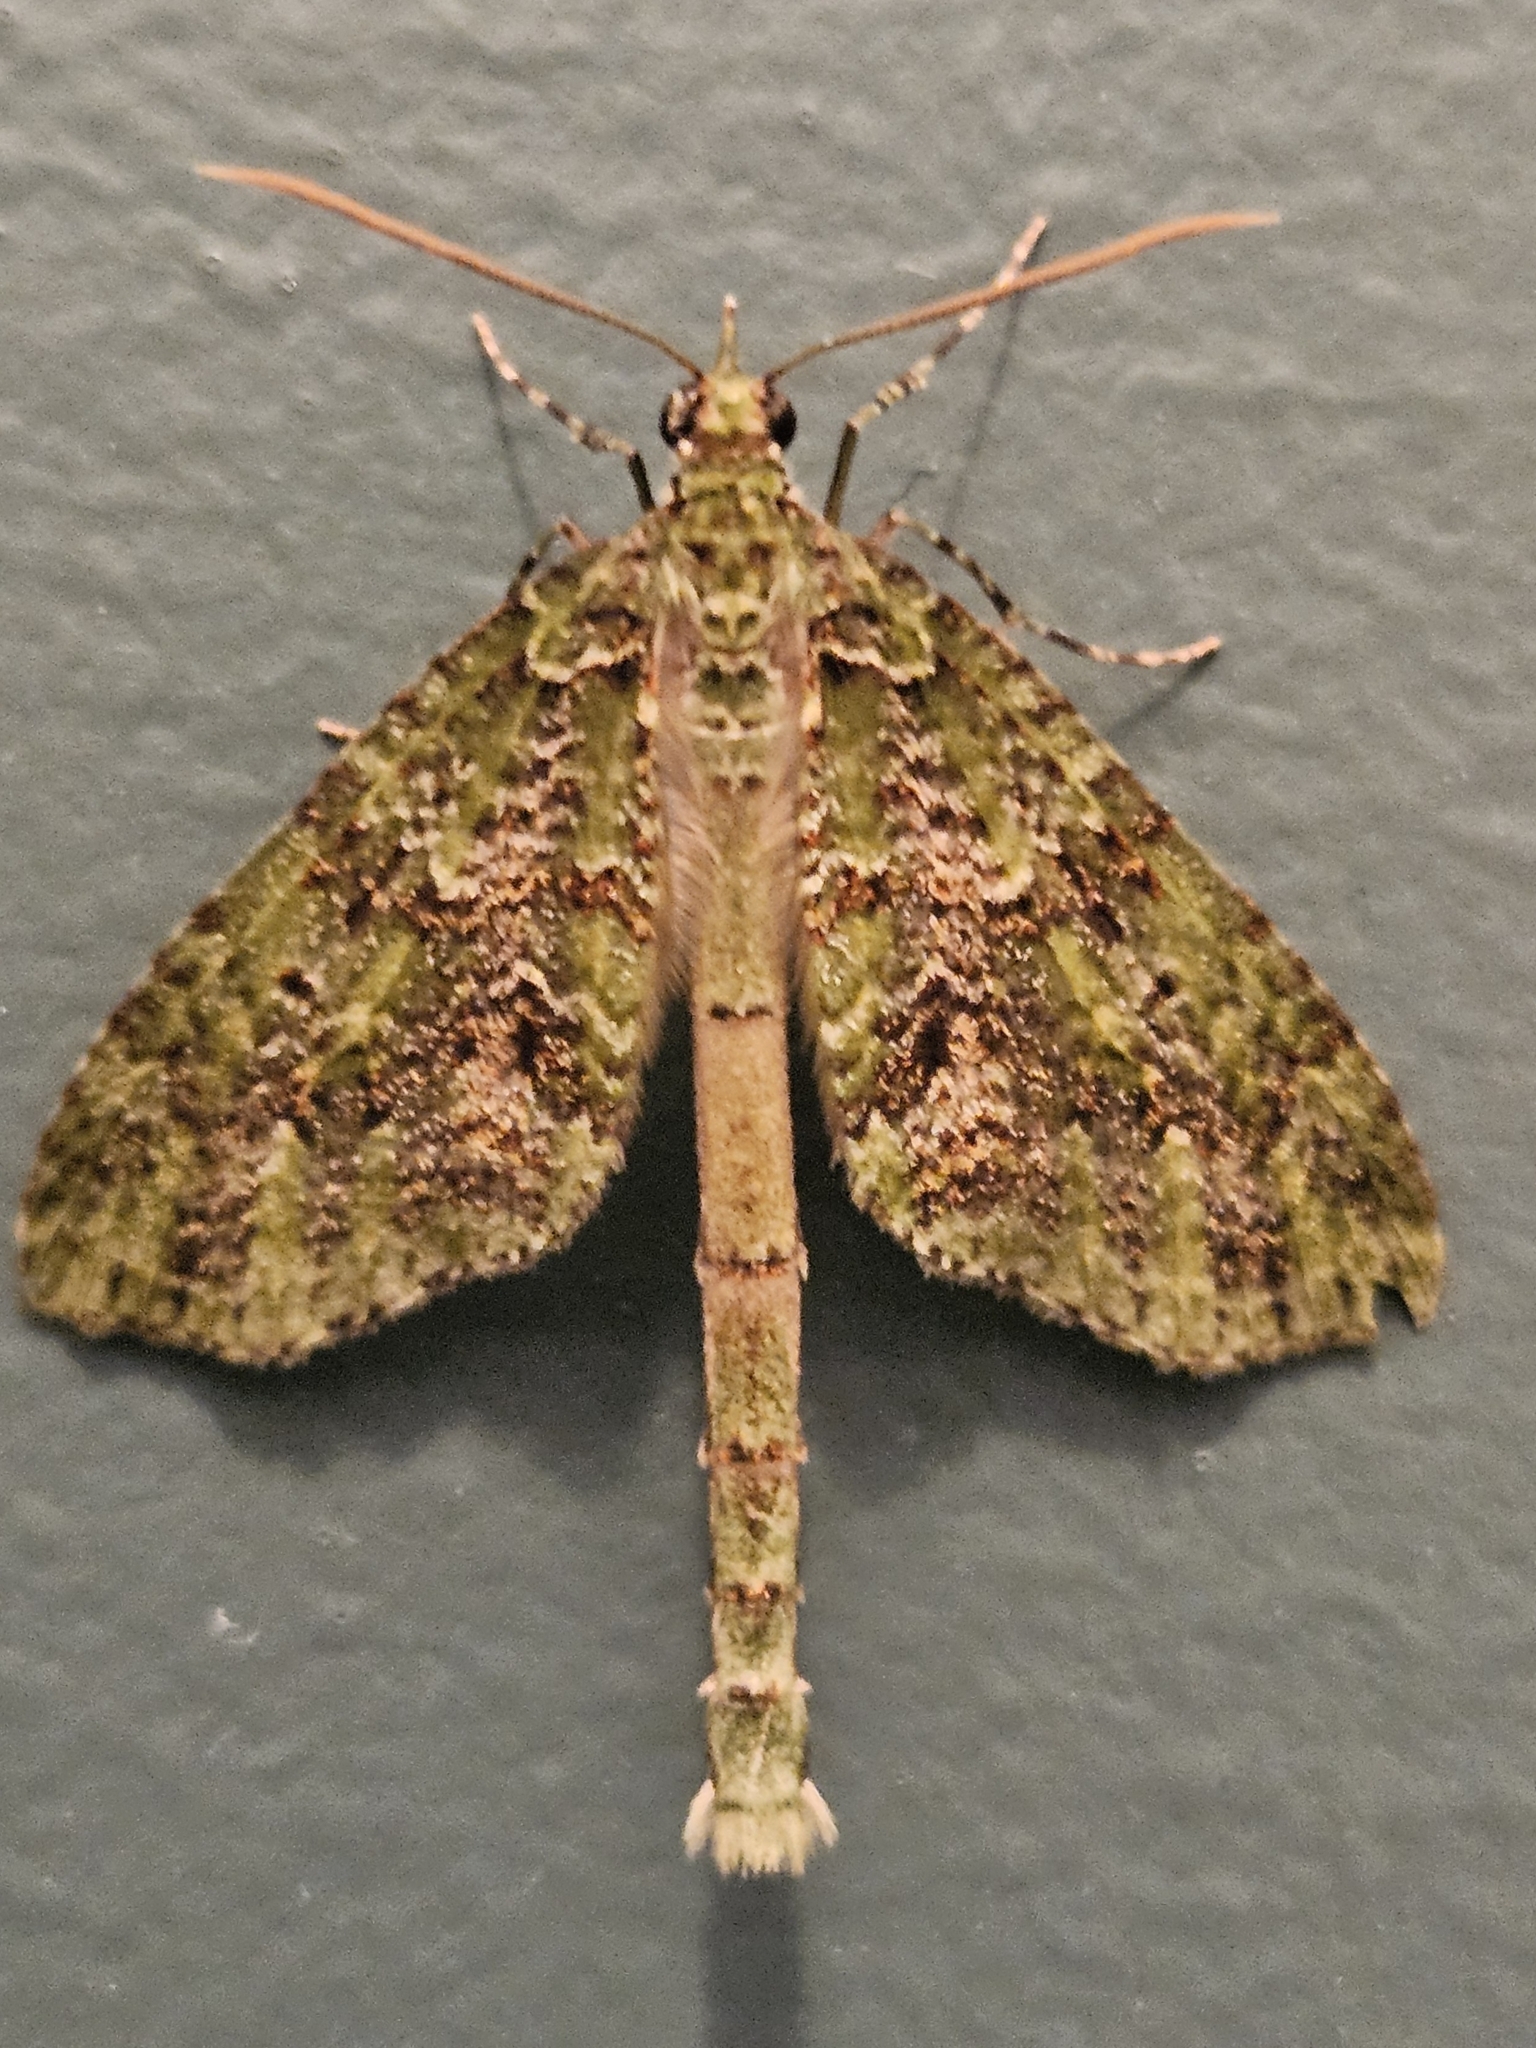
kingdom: Animalia
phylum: Arthropoda
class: Insecta
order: Lepidoptera
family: Geometridae
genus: Tatosoma
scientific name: Tatosoma tipulata
